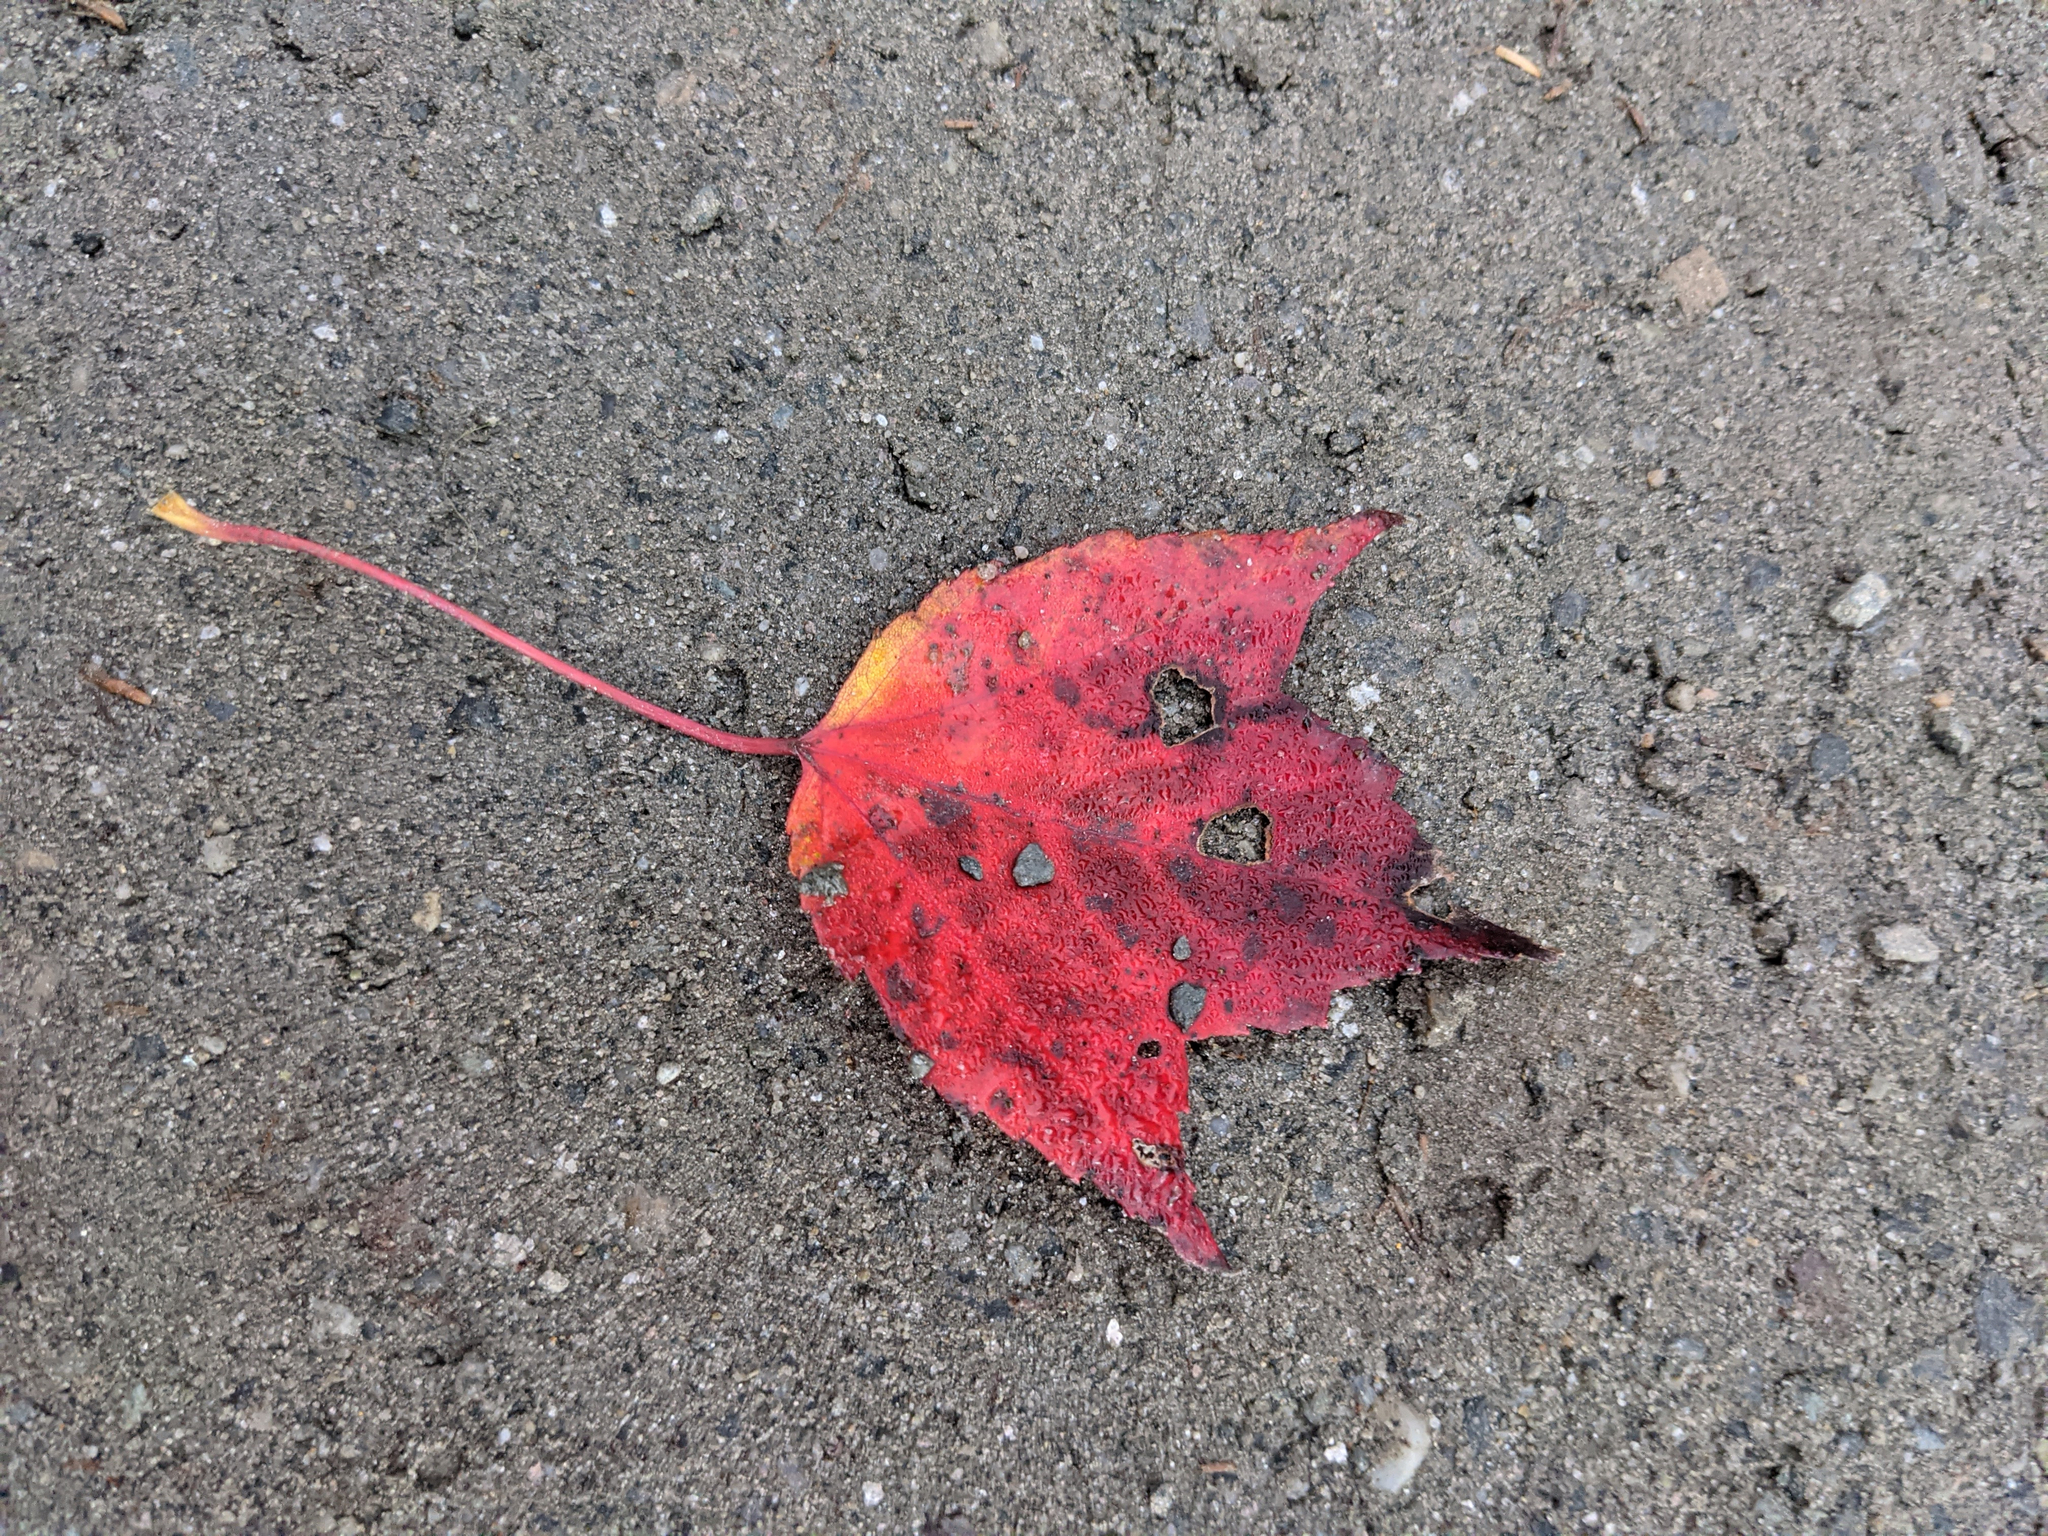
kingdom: Plantae
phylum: Tracheophyta
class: Magnoliopsida
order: Sapindales
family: Sapindaceae
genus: Acer
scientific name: Acer rubrum
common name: Red maple
